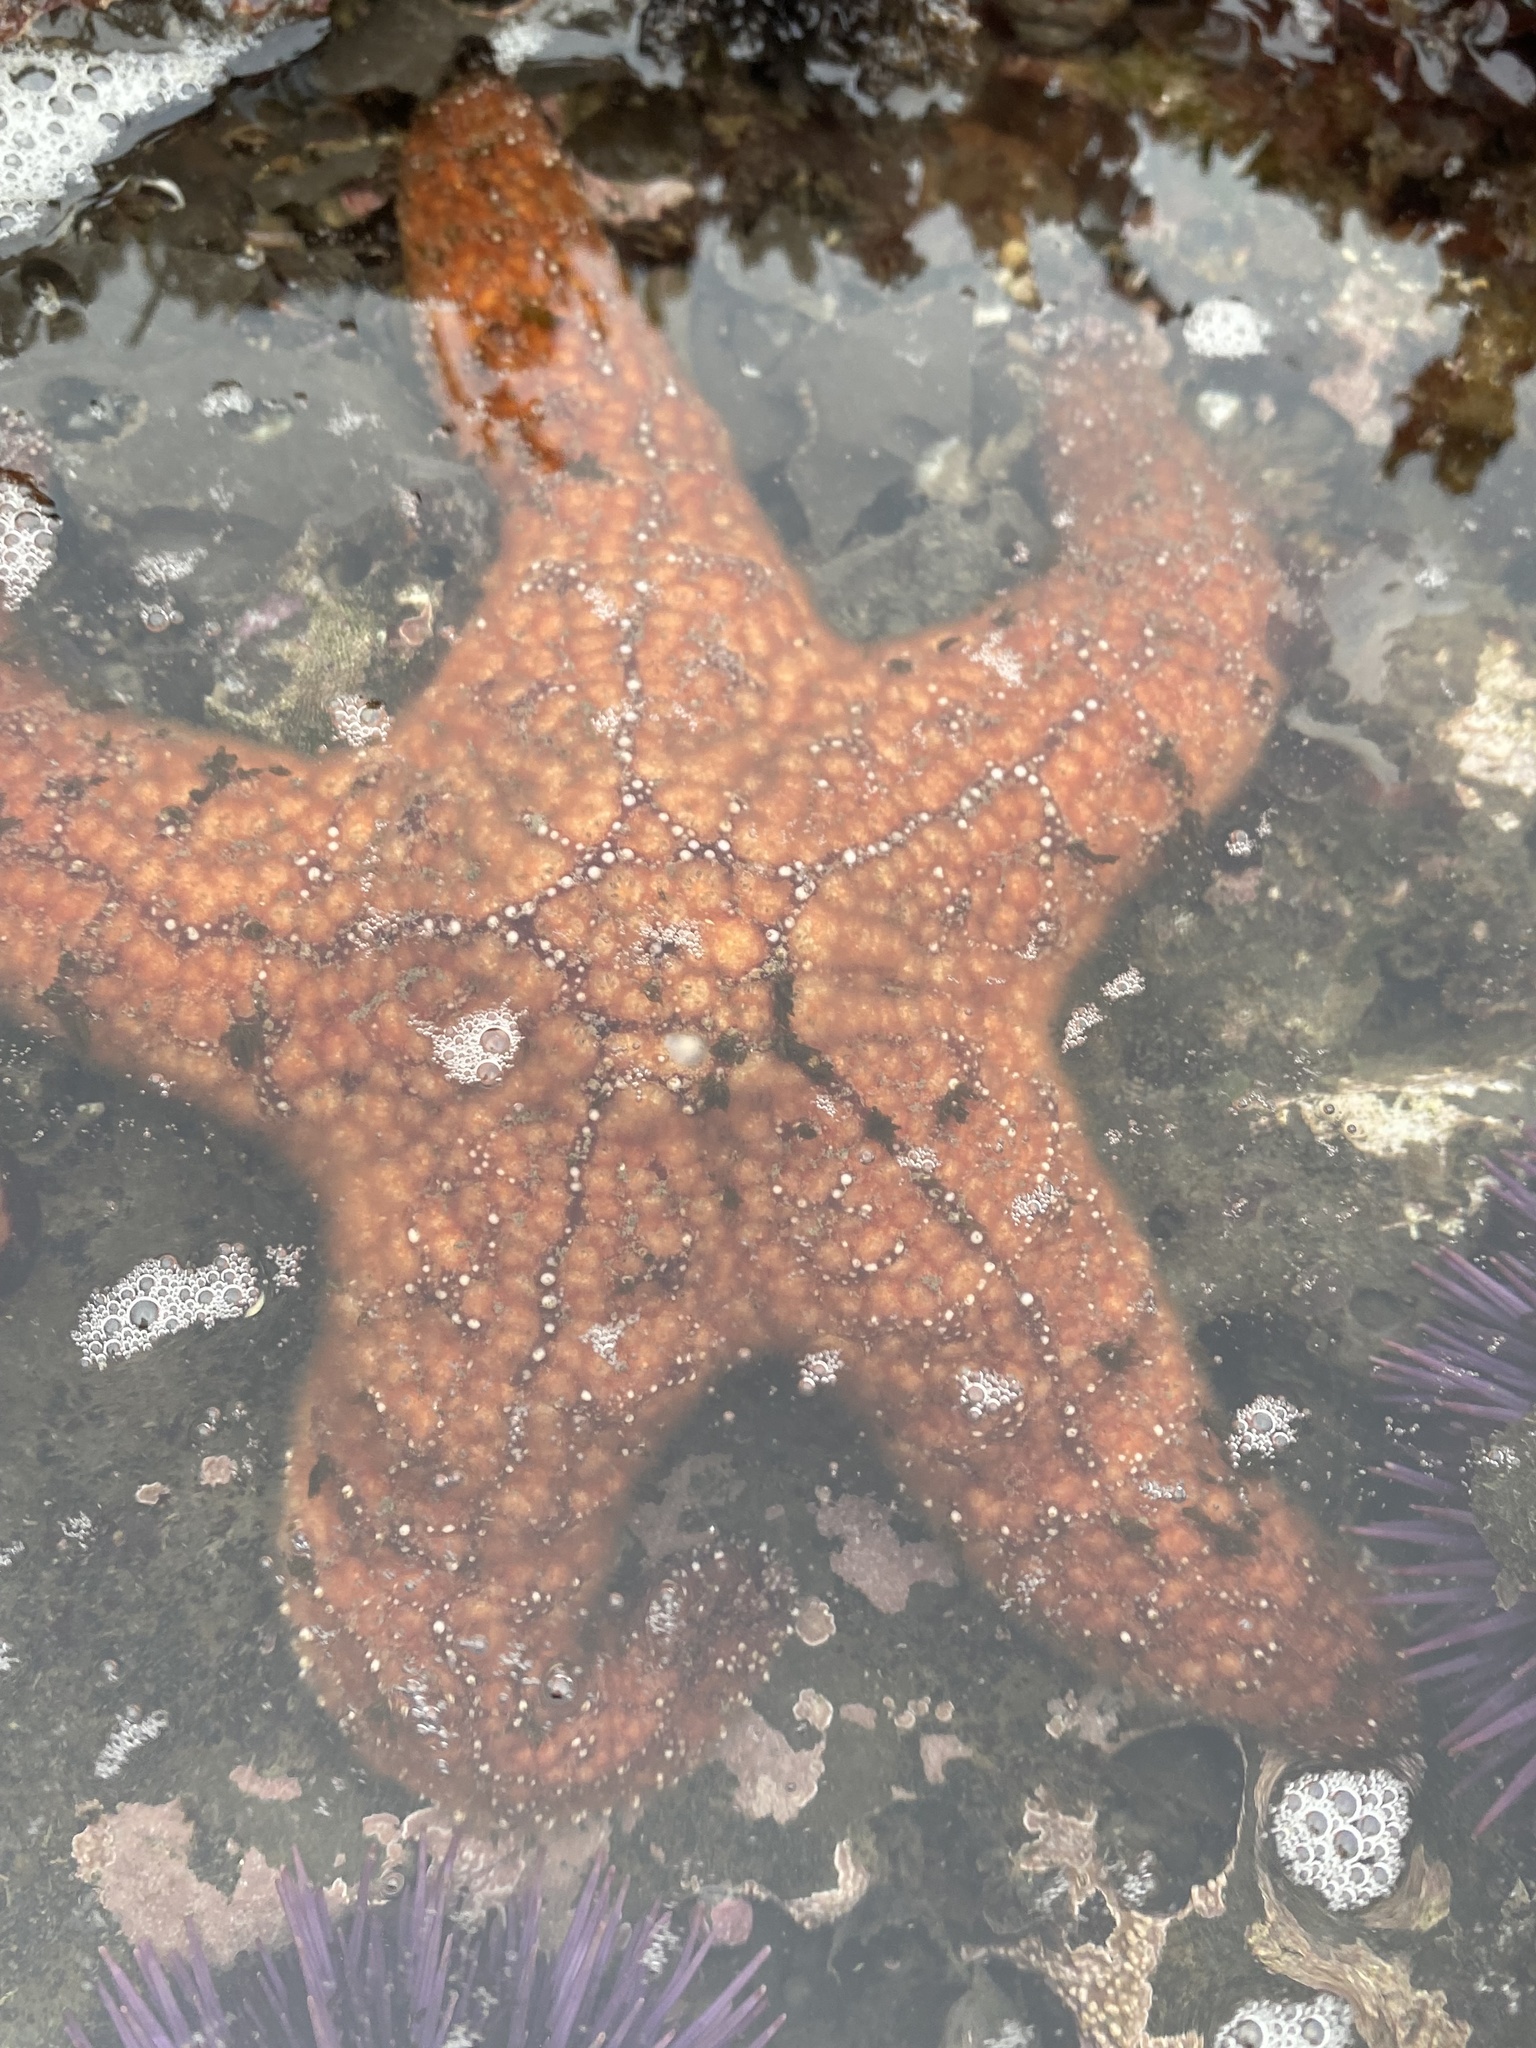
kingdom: Animalia
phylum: Echinodermata
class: Asteroidea
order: Forcipulatida
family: Asteriidae
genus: Pisaster
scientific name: Pisaster ochraceus
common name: Ochre stars
